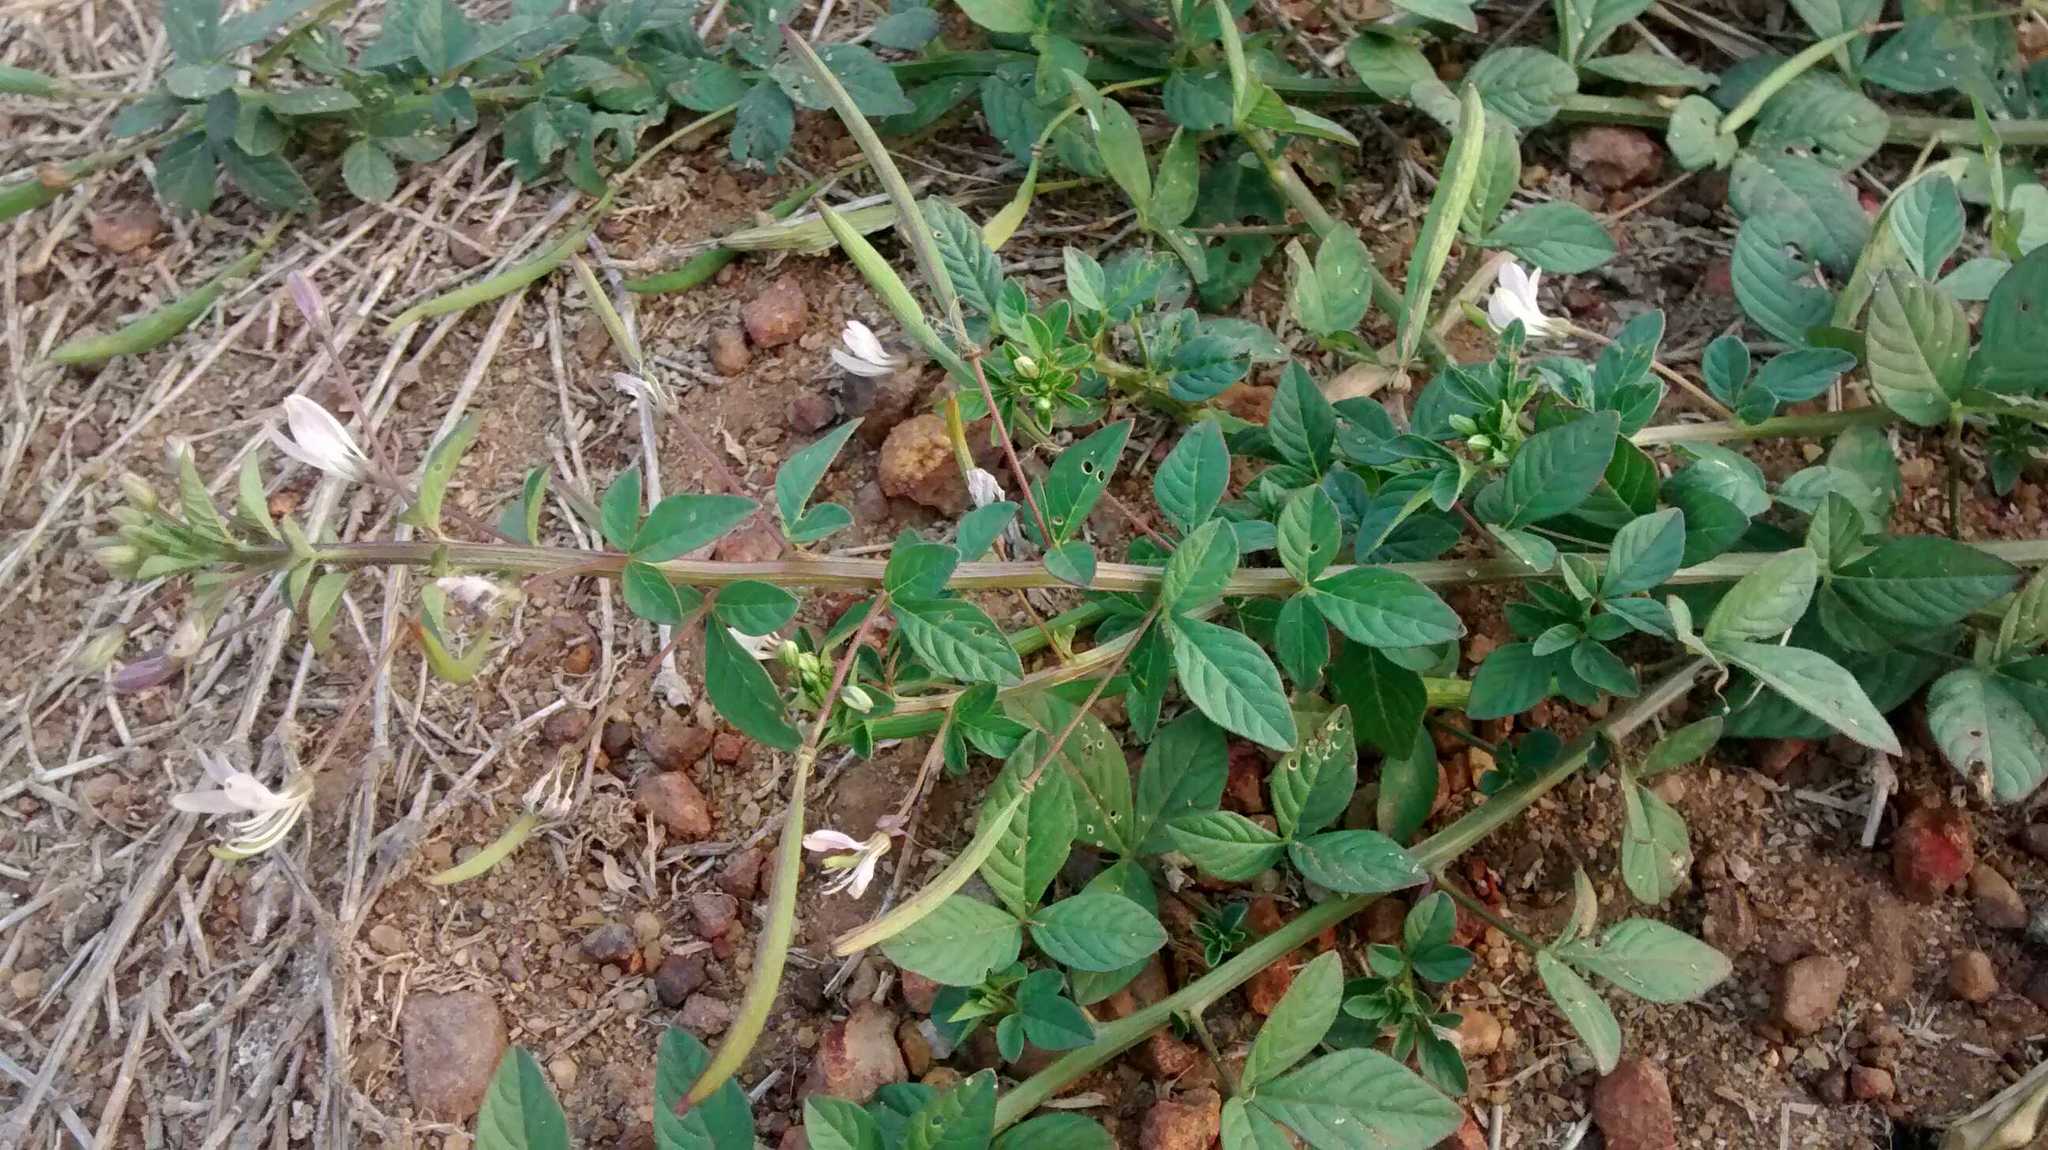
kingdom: Plantae
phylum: Tracheophyta
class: Magnoliopsida
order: Brassicales
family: Cleomaceae
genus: Sieruela
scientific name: Sieruela rutidosperma
